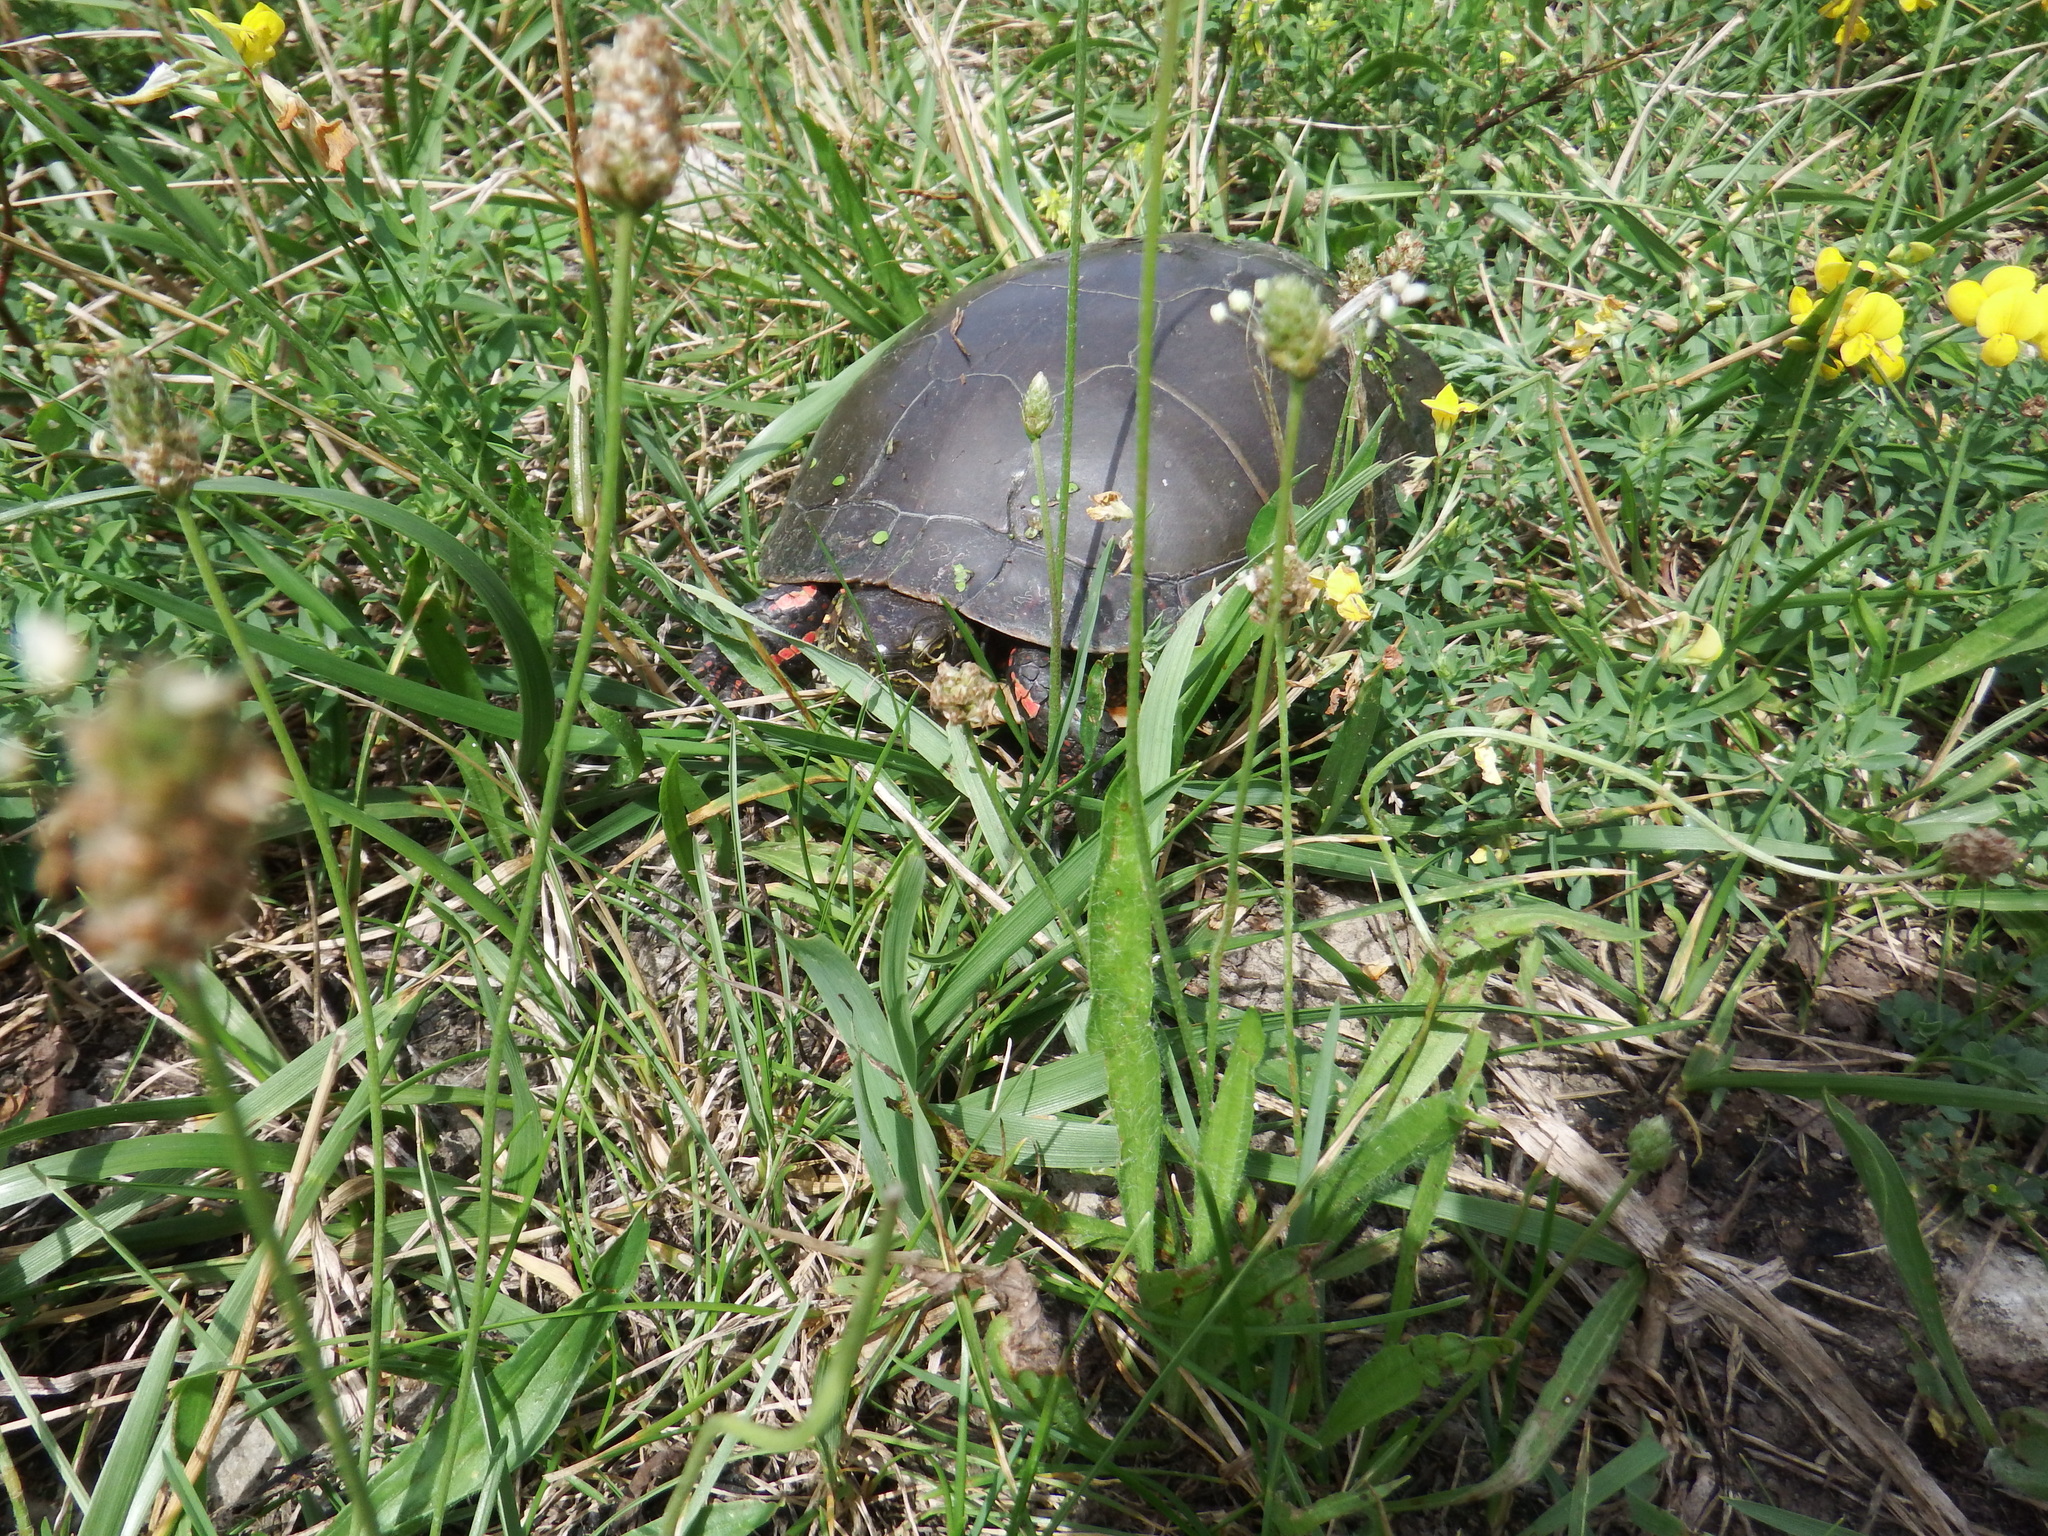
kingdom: Animalia
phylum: Chordata
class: Testudines
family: Emydidae
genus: Chrysemys
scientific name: Chrysemys picta
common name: Painted turtle
